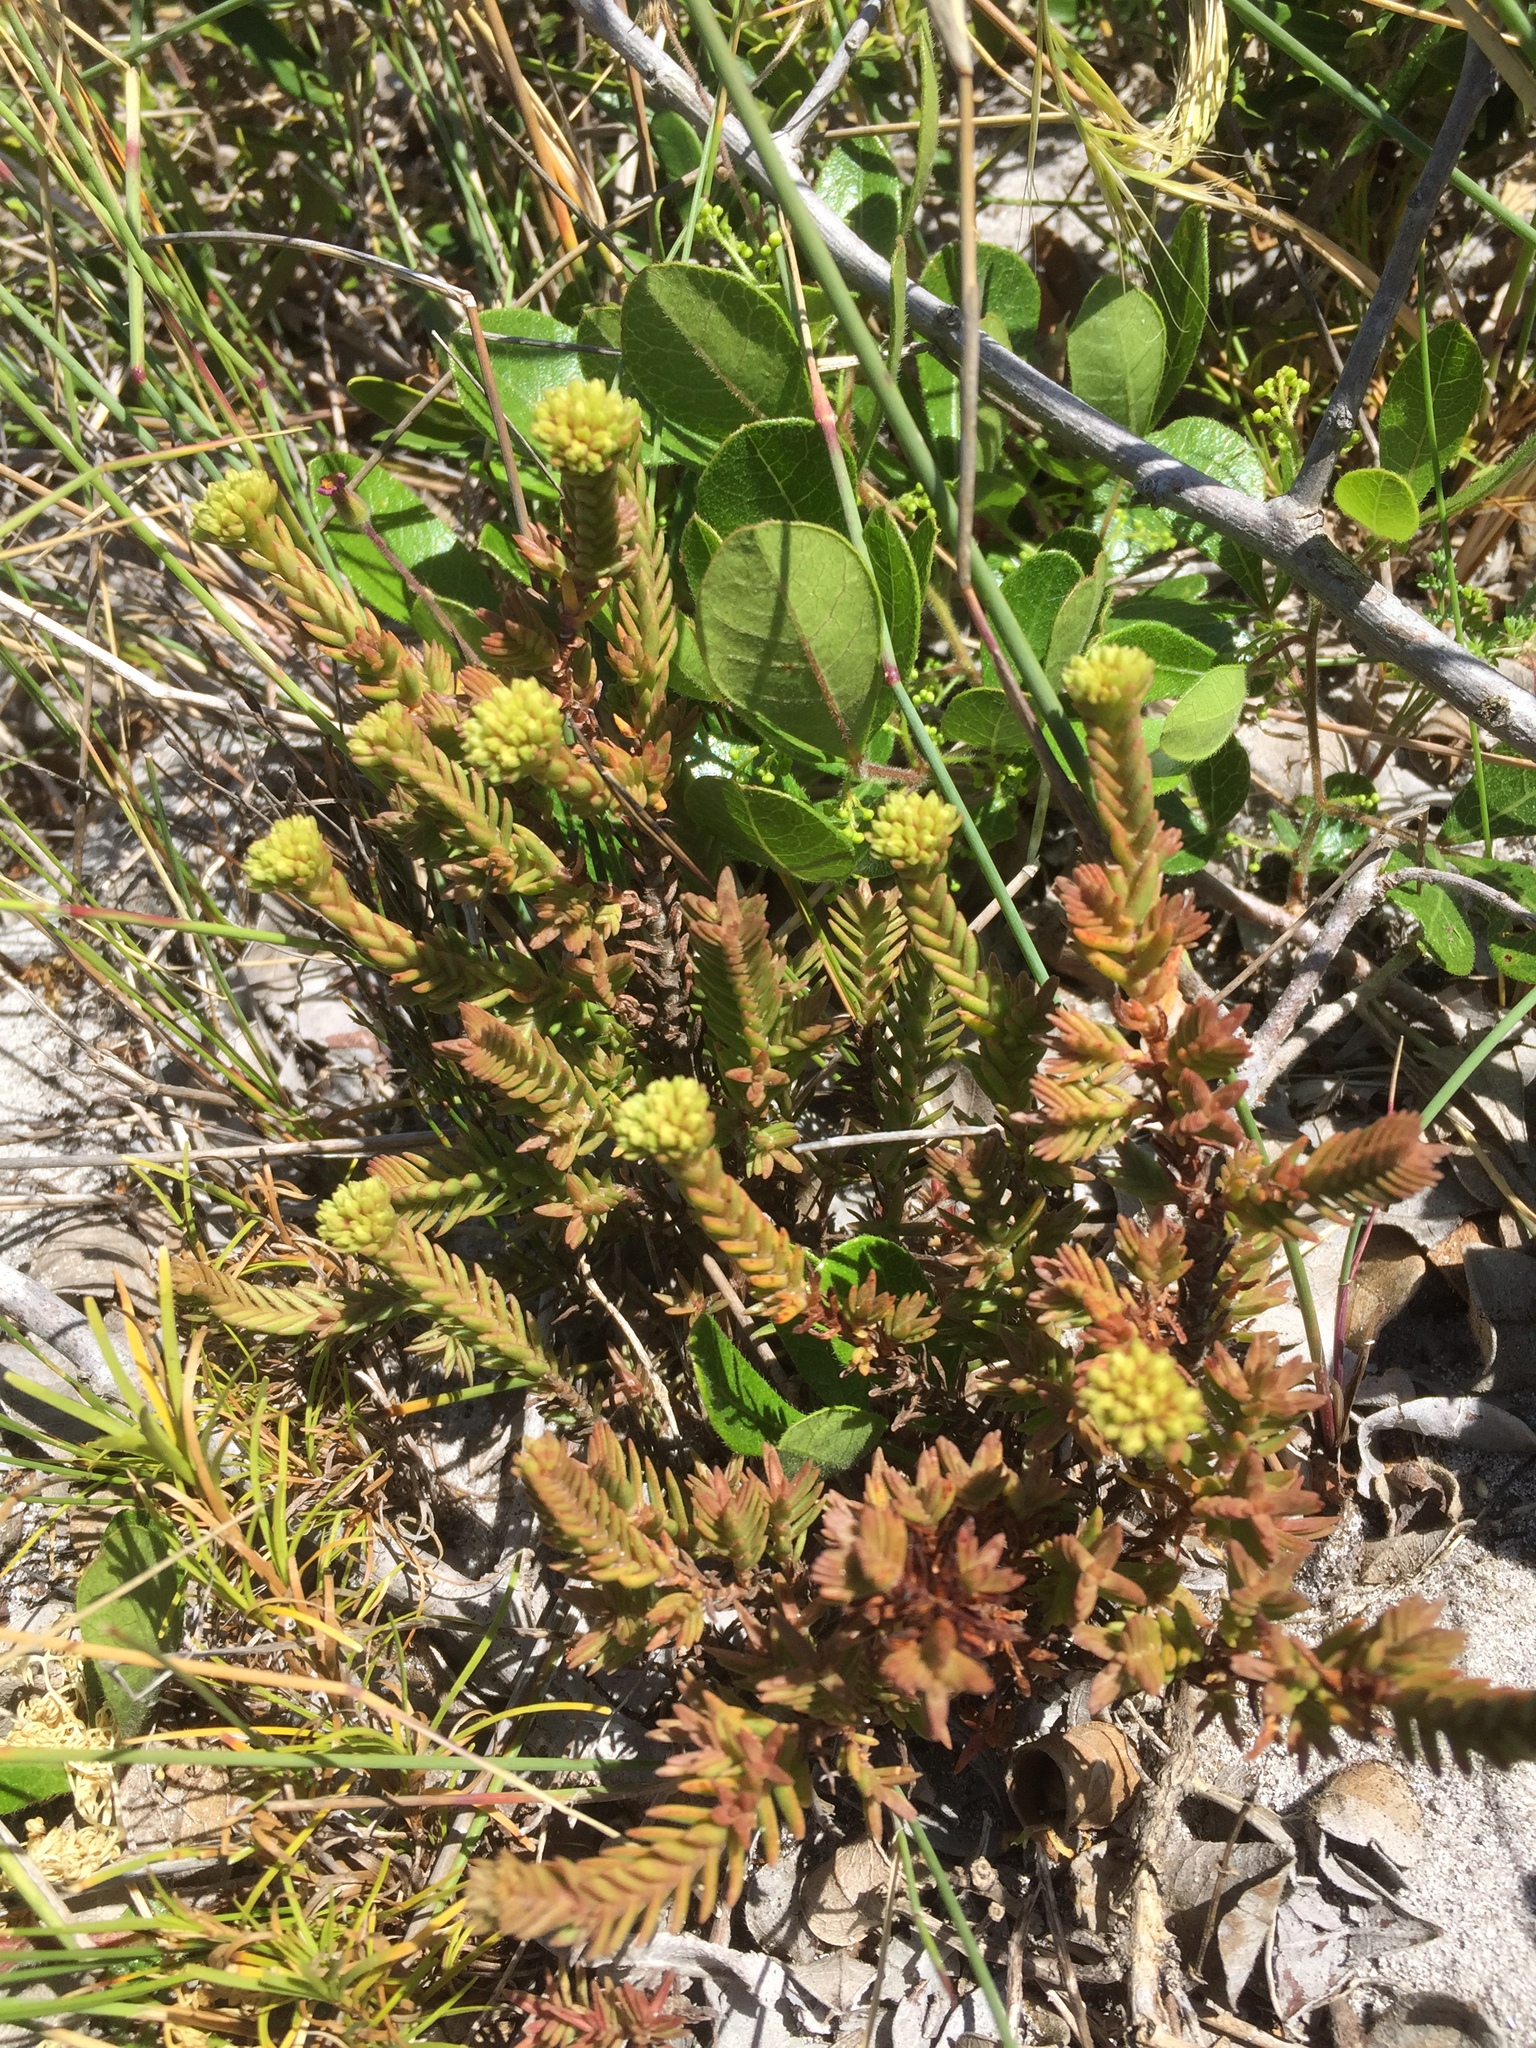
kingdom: Plantae
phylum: Tracheophyta
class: Magnoliopsida
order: Saxifragales
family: Crassulaceae
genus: Crassula
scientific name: Crassula flava
